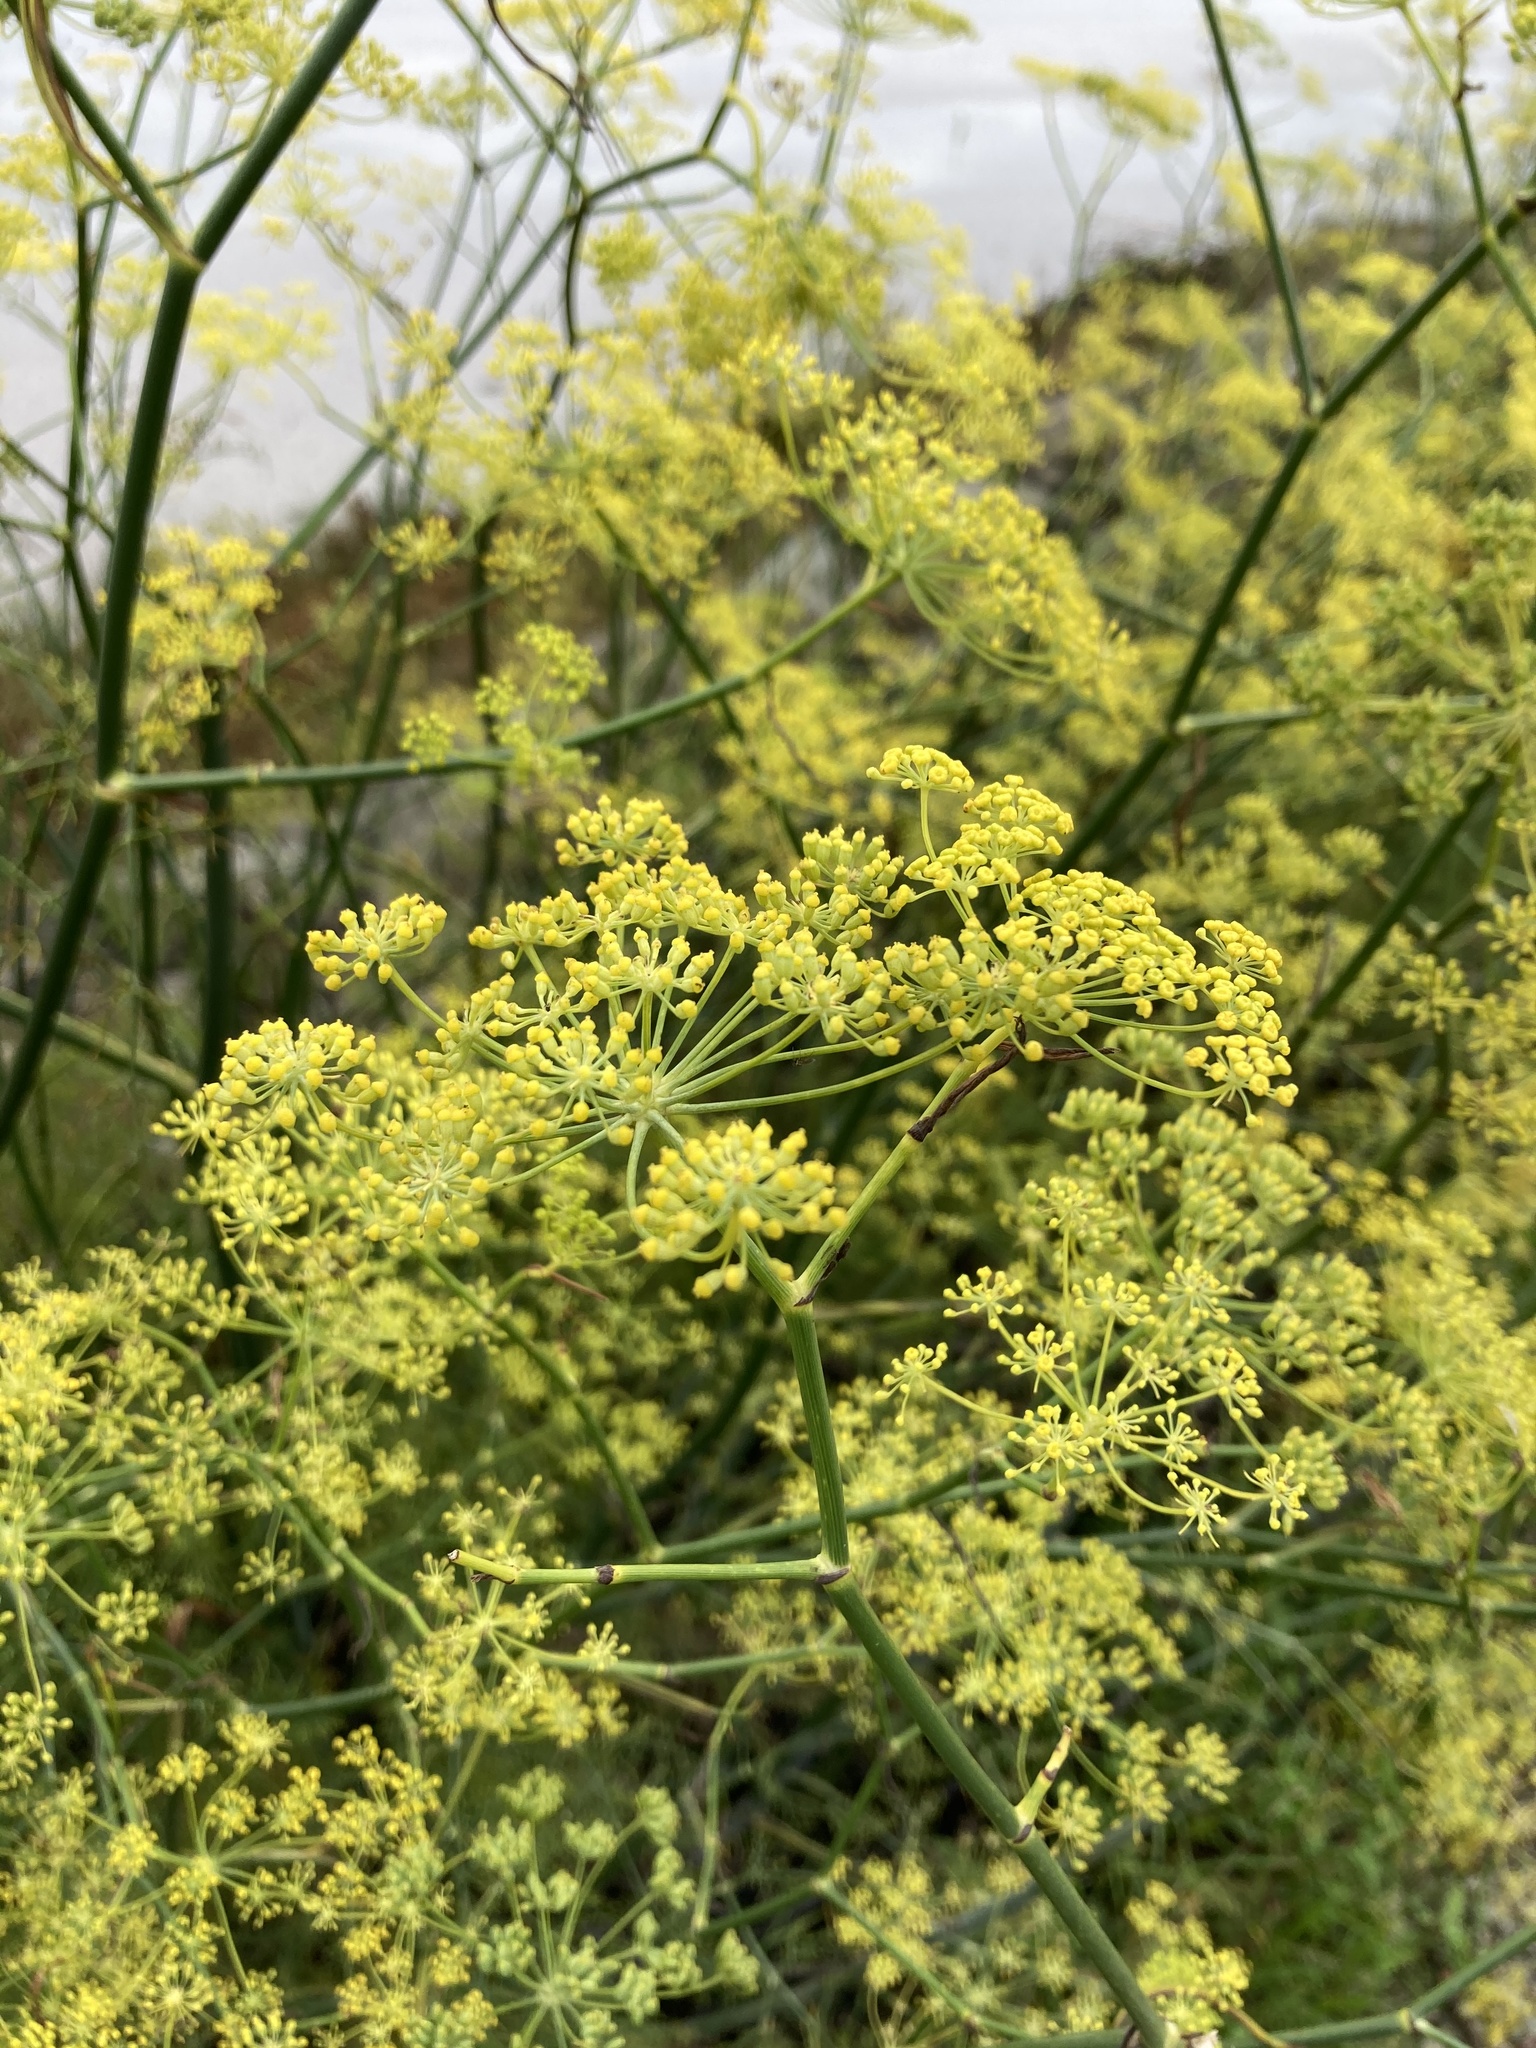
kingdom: Plantae
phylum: Tracheophyta
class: Magnoliopsida
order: Apiales
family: Apiaceae
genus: Foeniculum
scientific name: Foeniculum vulgare
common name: Fennel
